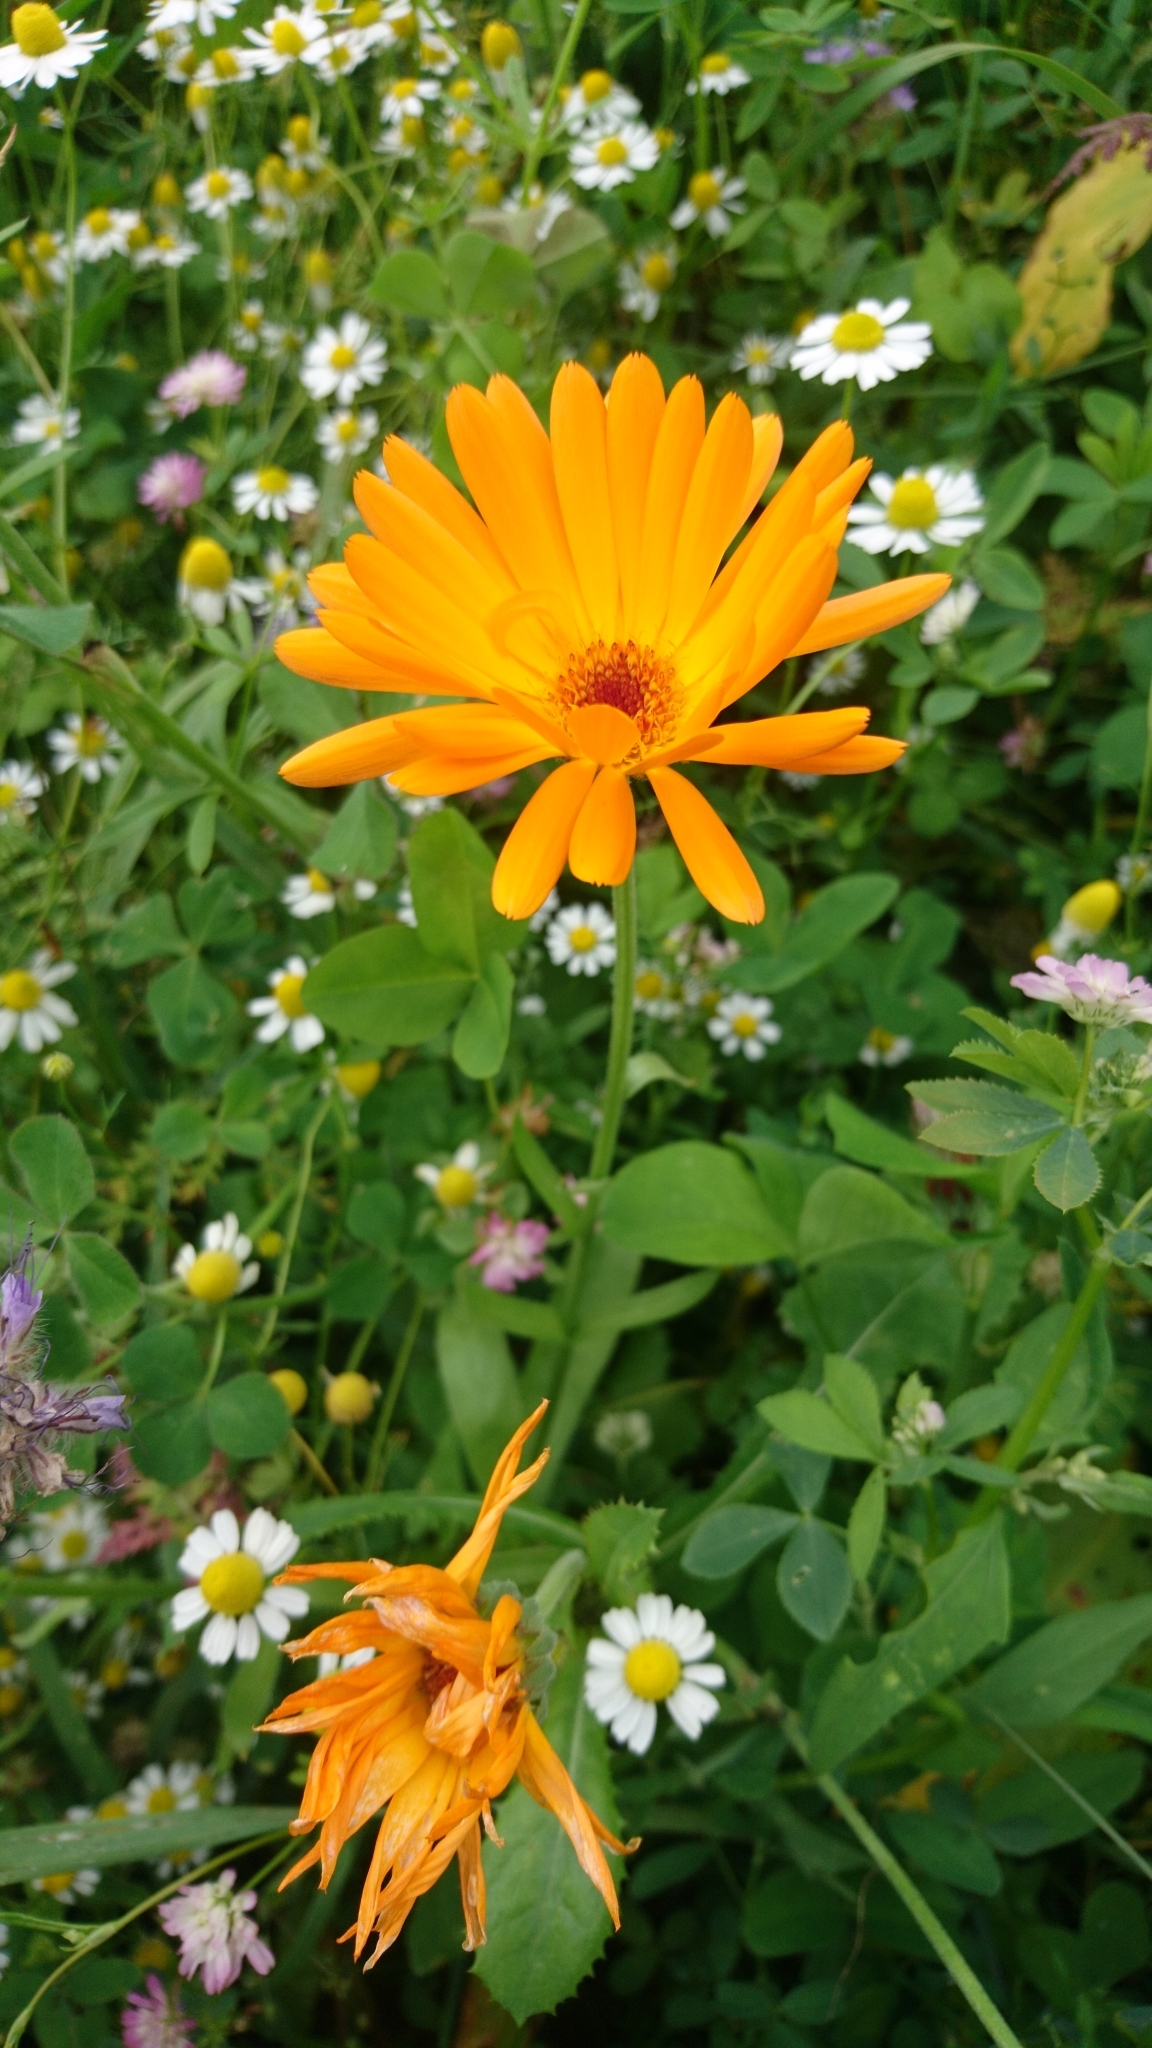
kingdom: Plantae
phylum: Tracheophyta
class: Magnoliopsida
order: Asterales
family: Asteraceae
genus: Calendula
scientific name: Calendula officinalis
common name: Pot marigold
